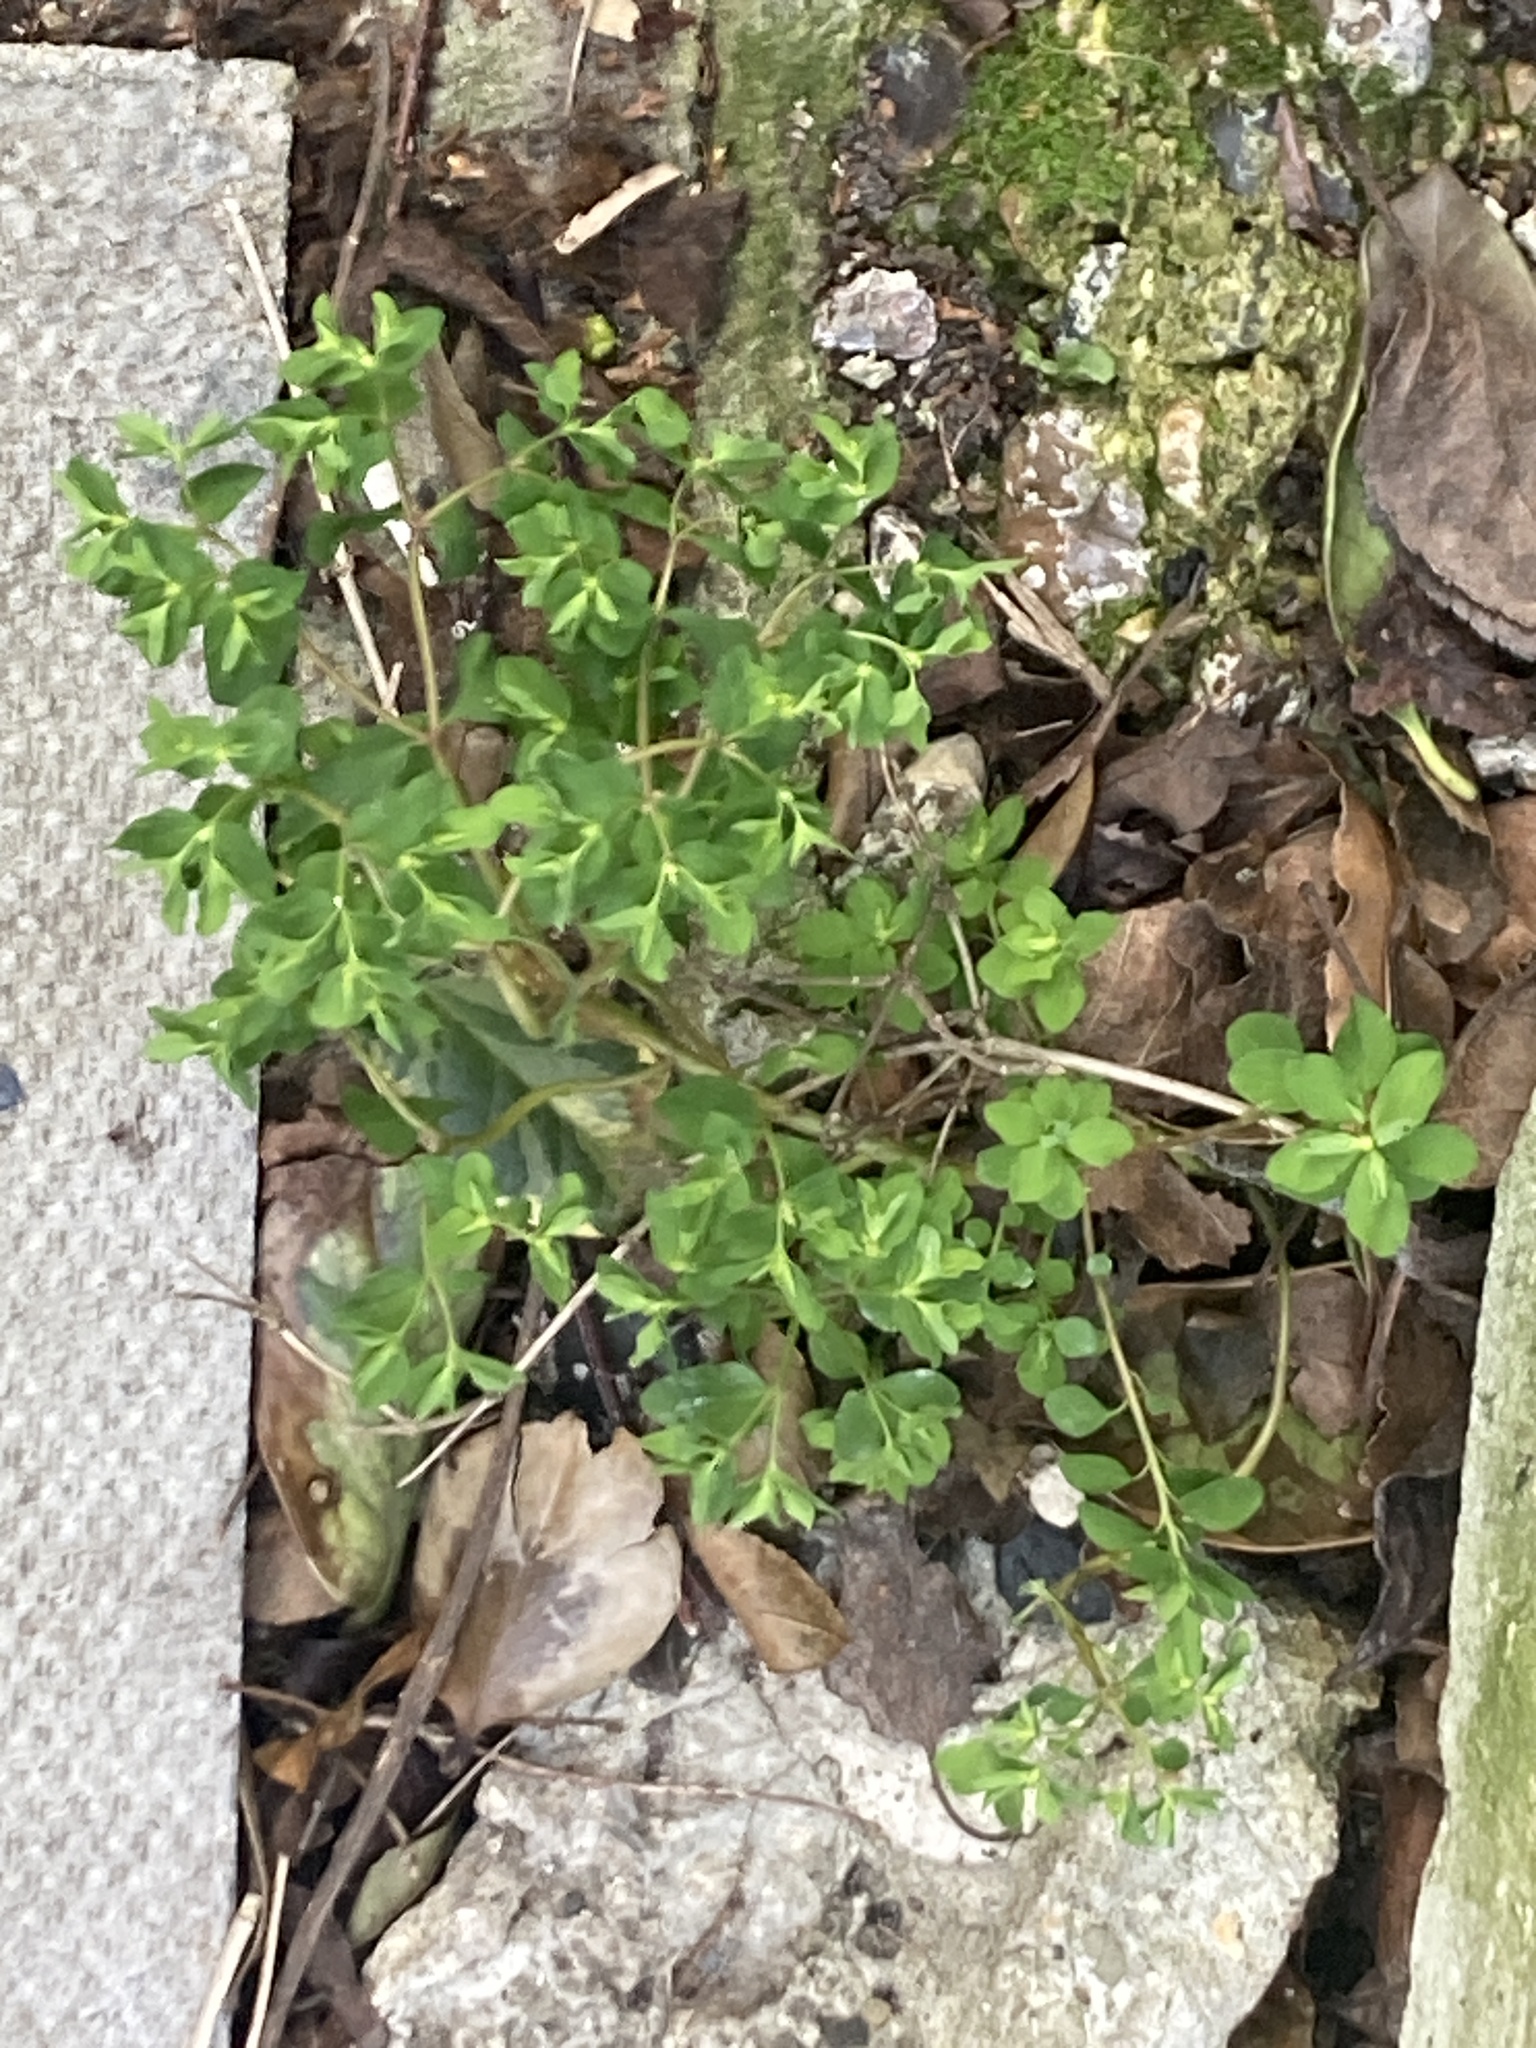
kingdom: Plantae
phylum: Tracheophyta
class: Magnoliopsida
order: Malpighiales
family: Euphorbiaceae
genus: Euphorbia
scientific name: Euphorbia peplus
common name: Petty spurge
